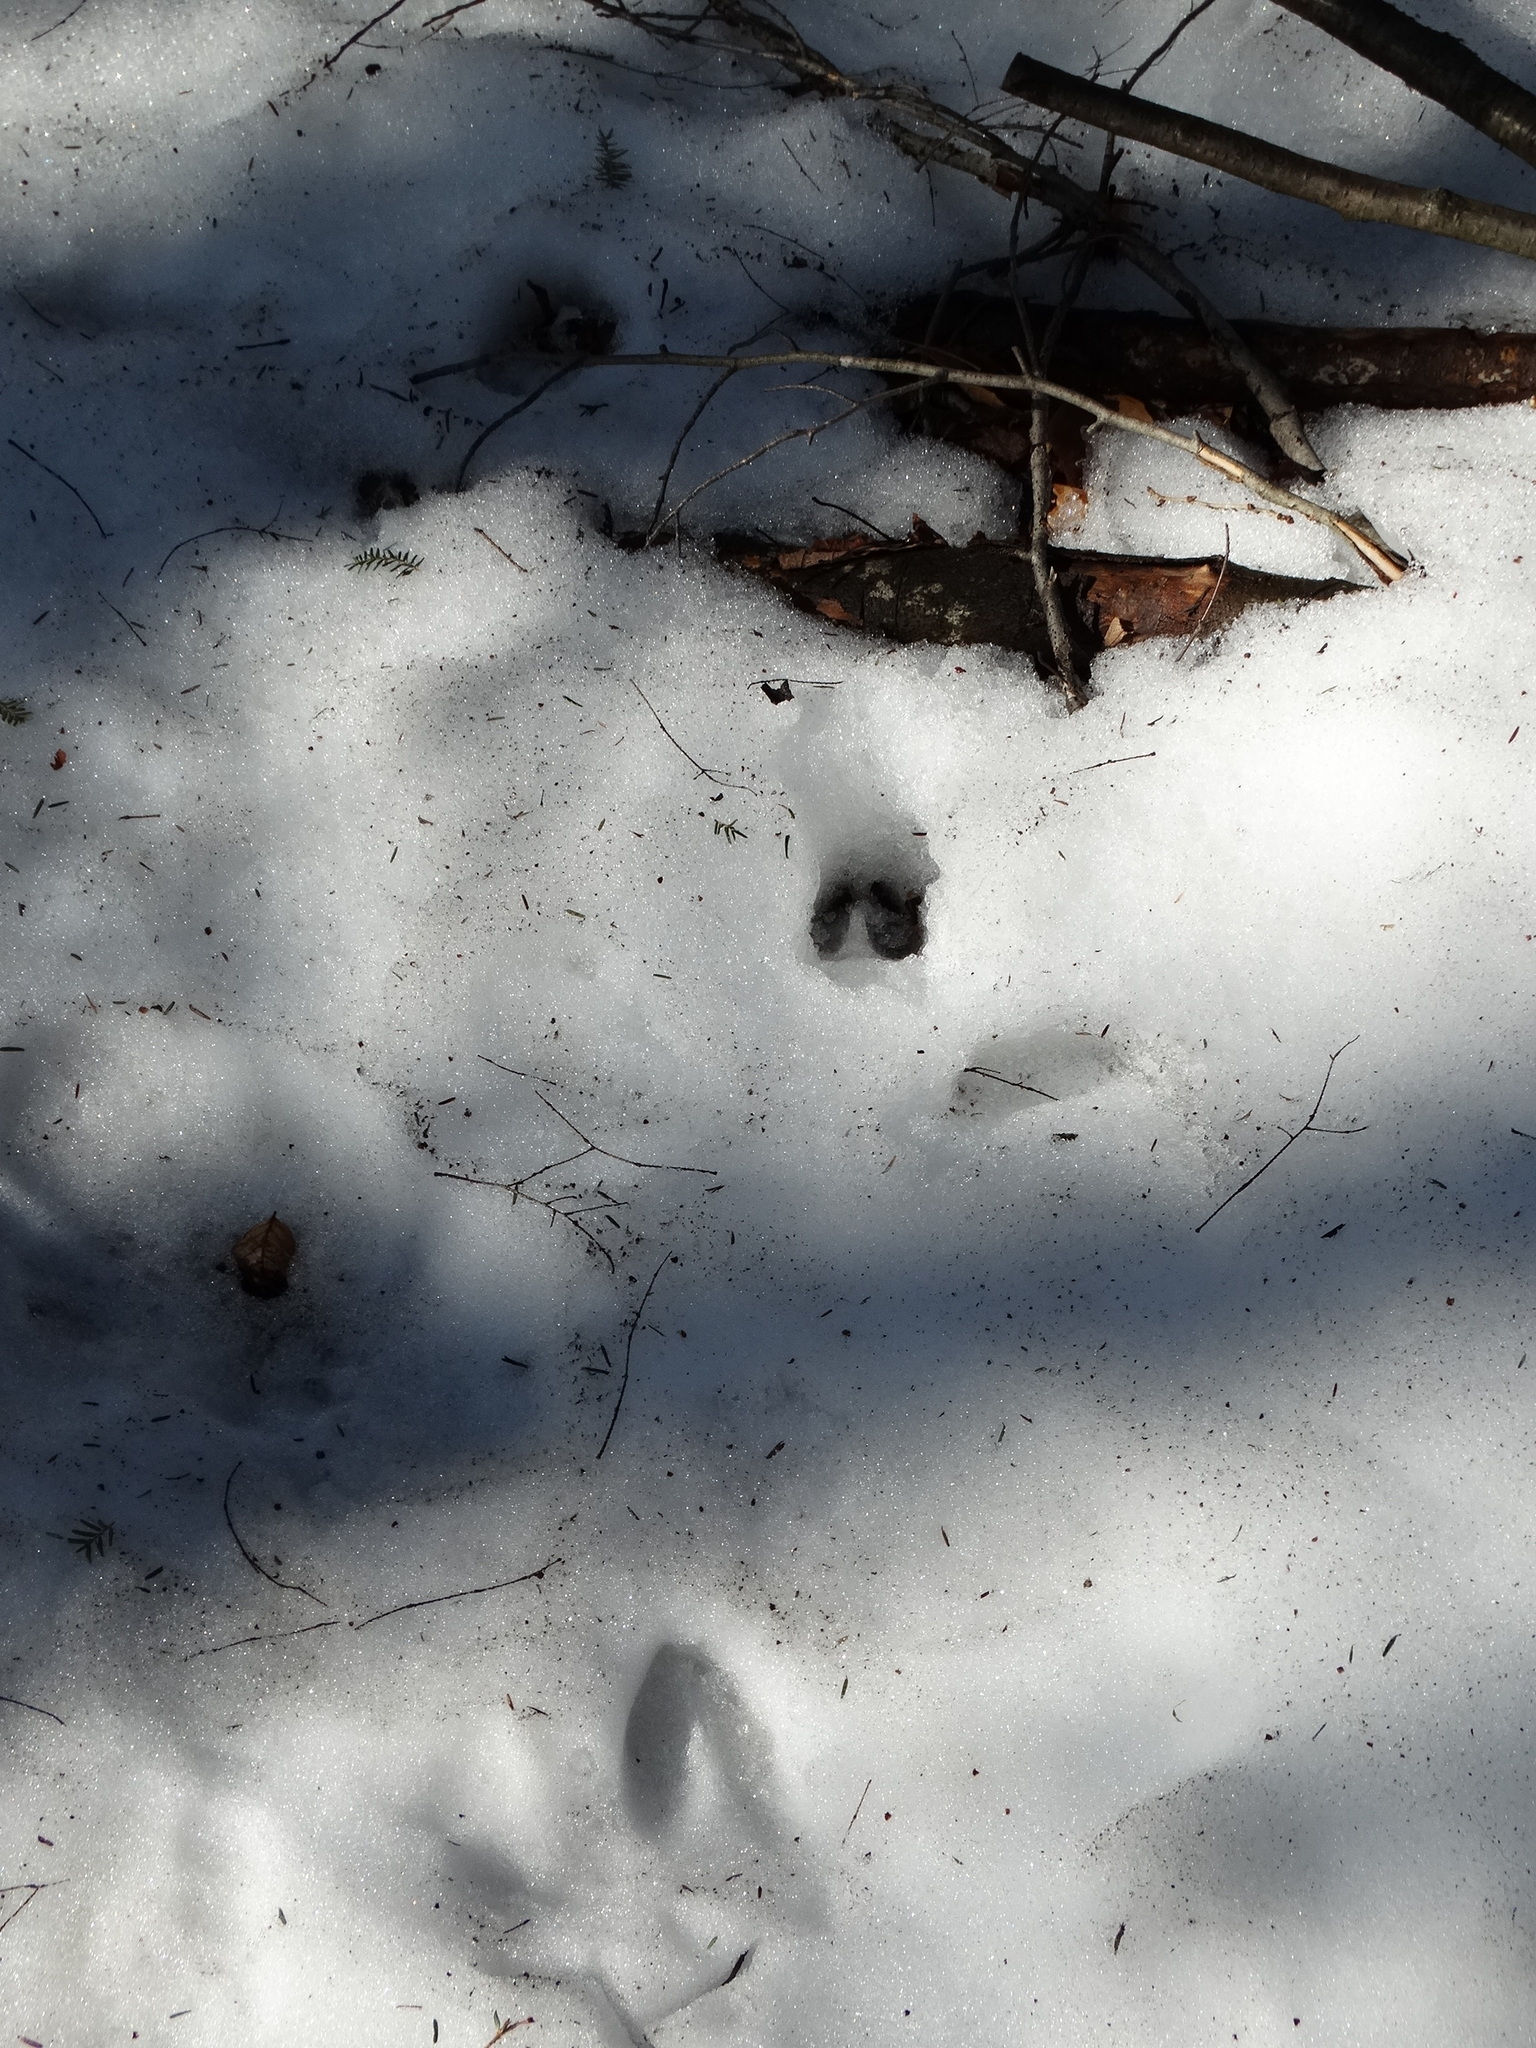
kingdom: Animalia
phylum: Chordata
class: Mammalia
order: Artiodactyla
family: Cervidae
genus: Odocoileus
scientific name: Odocoileus virginianus
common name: White-tailed deer
